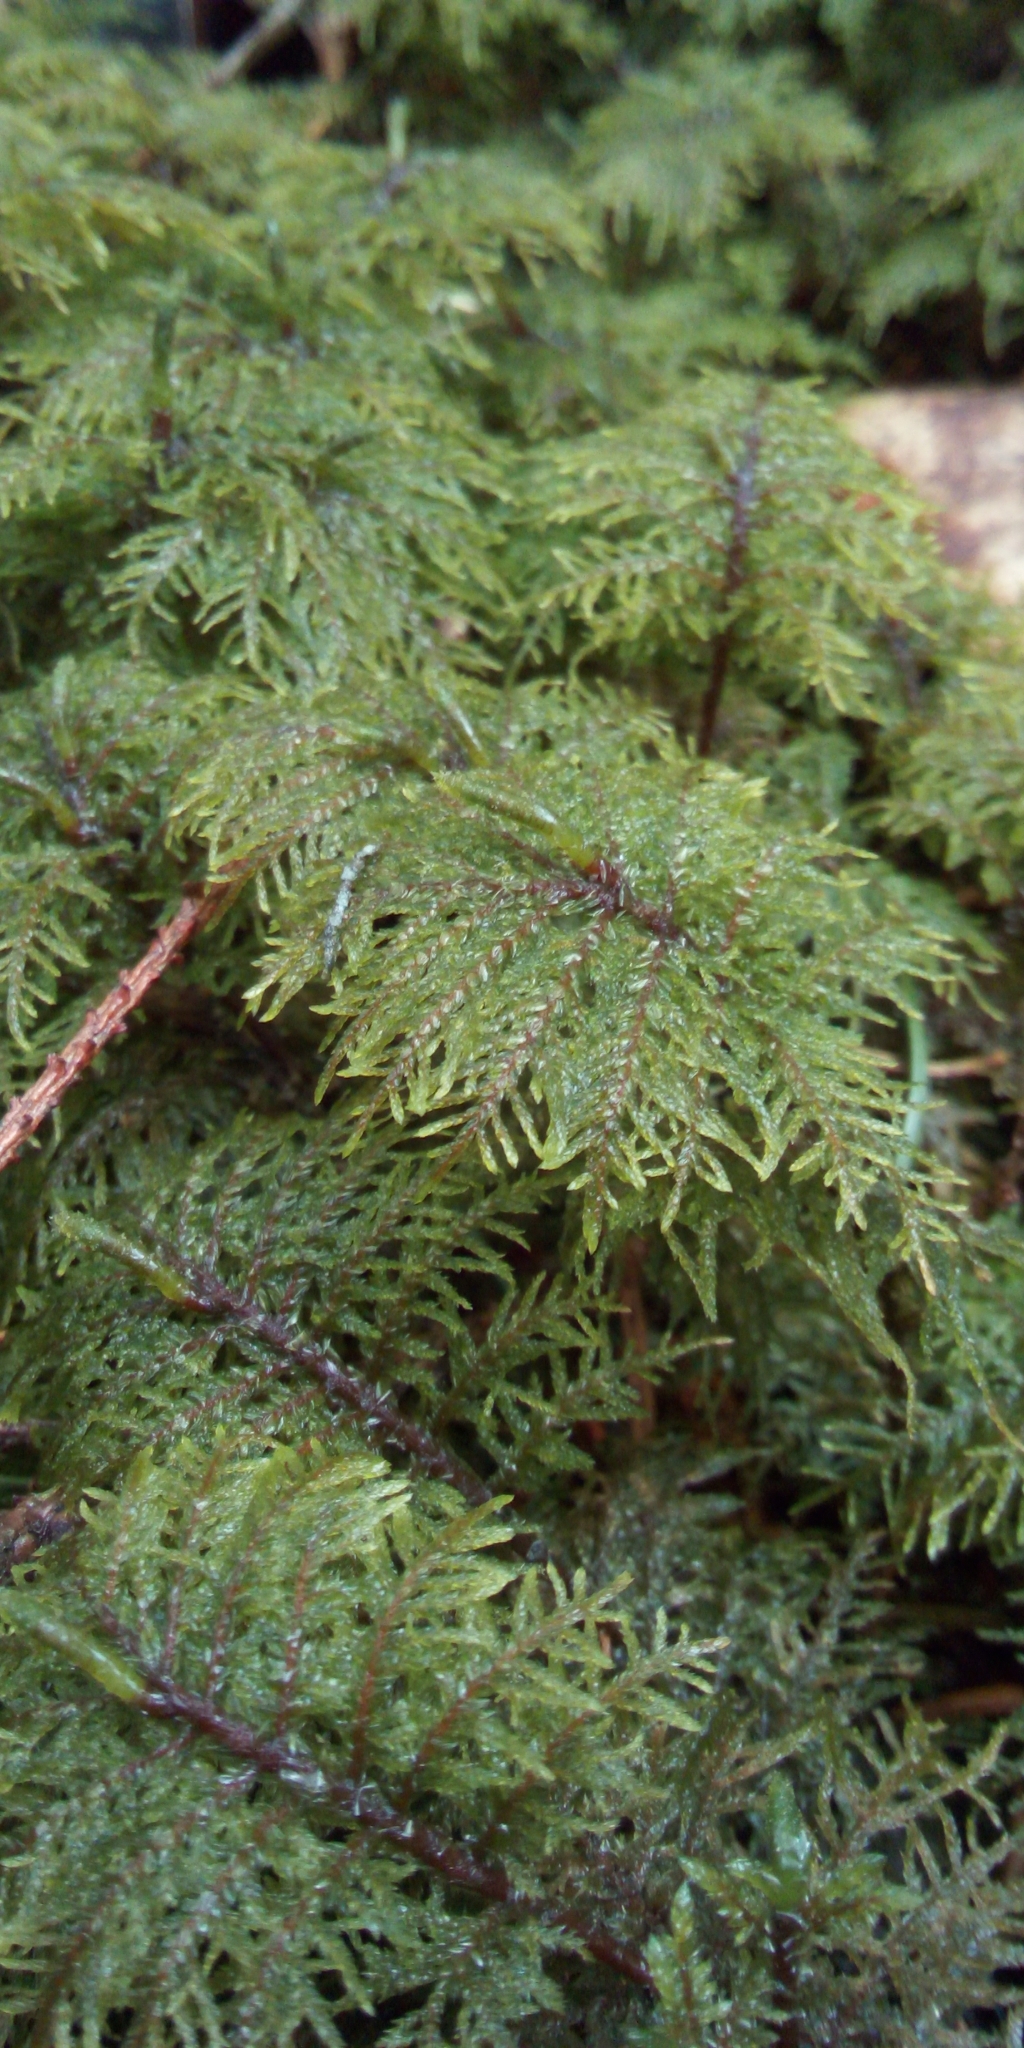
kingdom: Plantae
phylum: Bryophyta
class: Bryopsida
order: Hypnales
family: Hylocomiaceae
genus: Hylocomium
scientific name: Hylocomium splendens
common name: Stairstep moss
